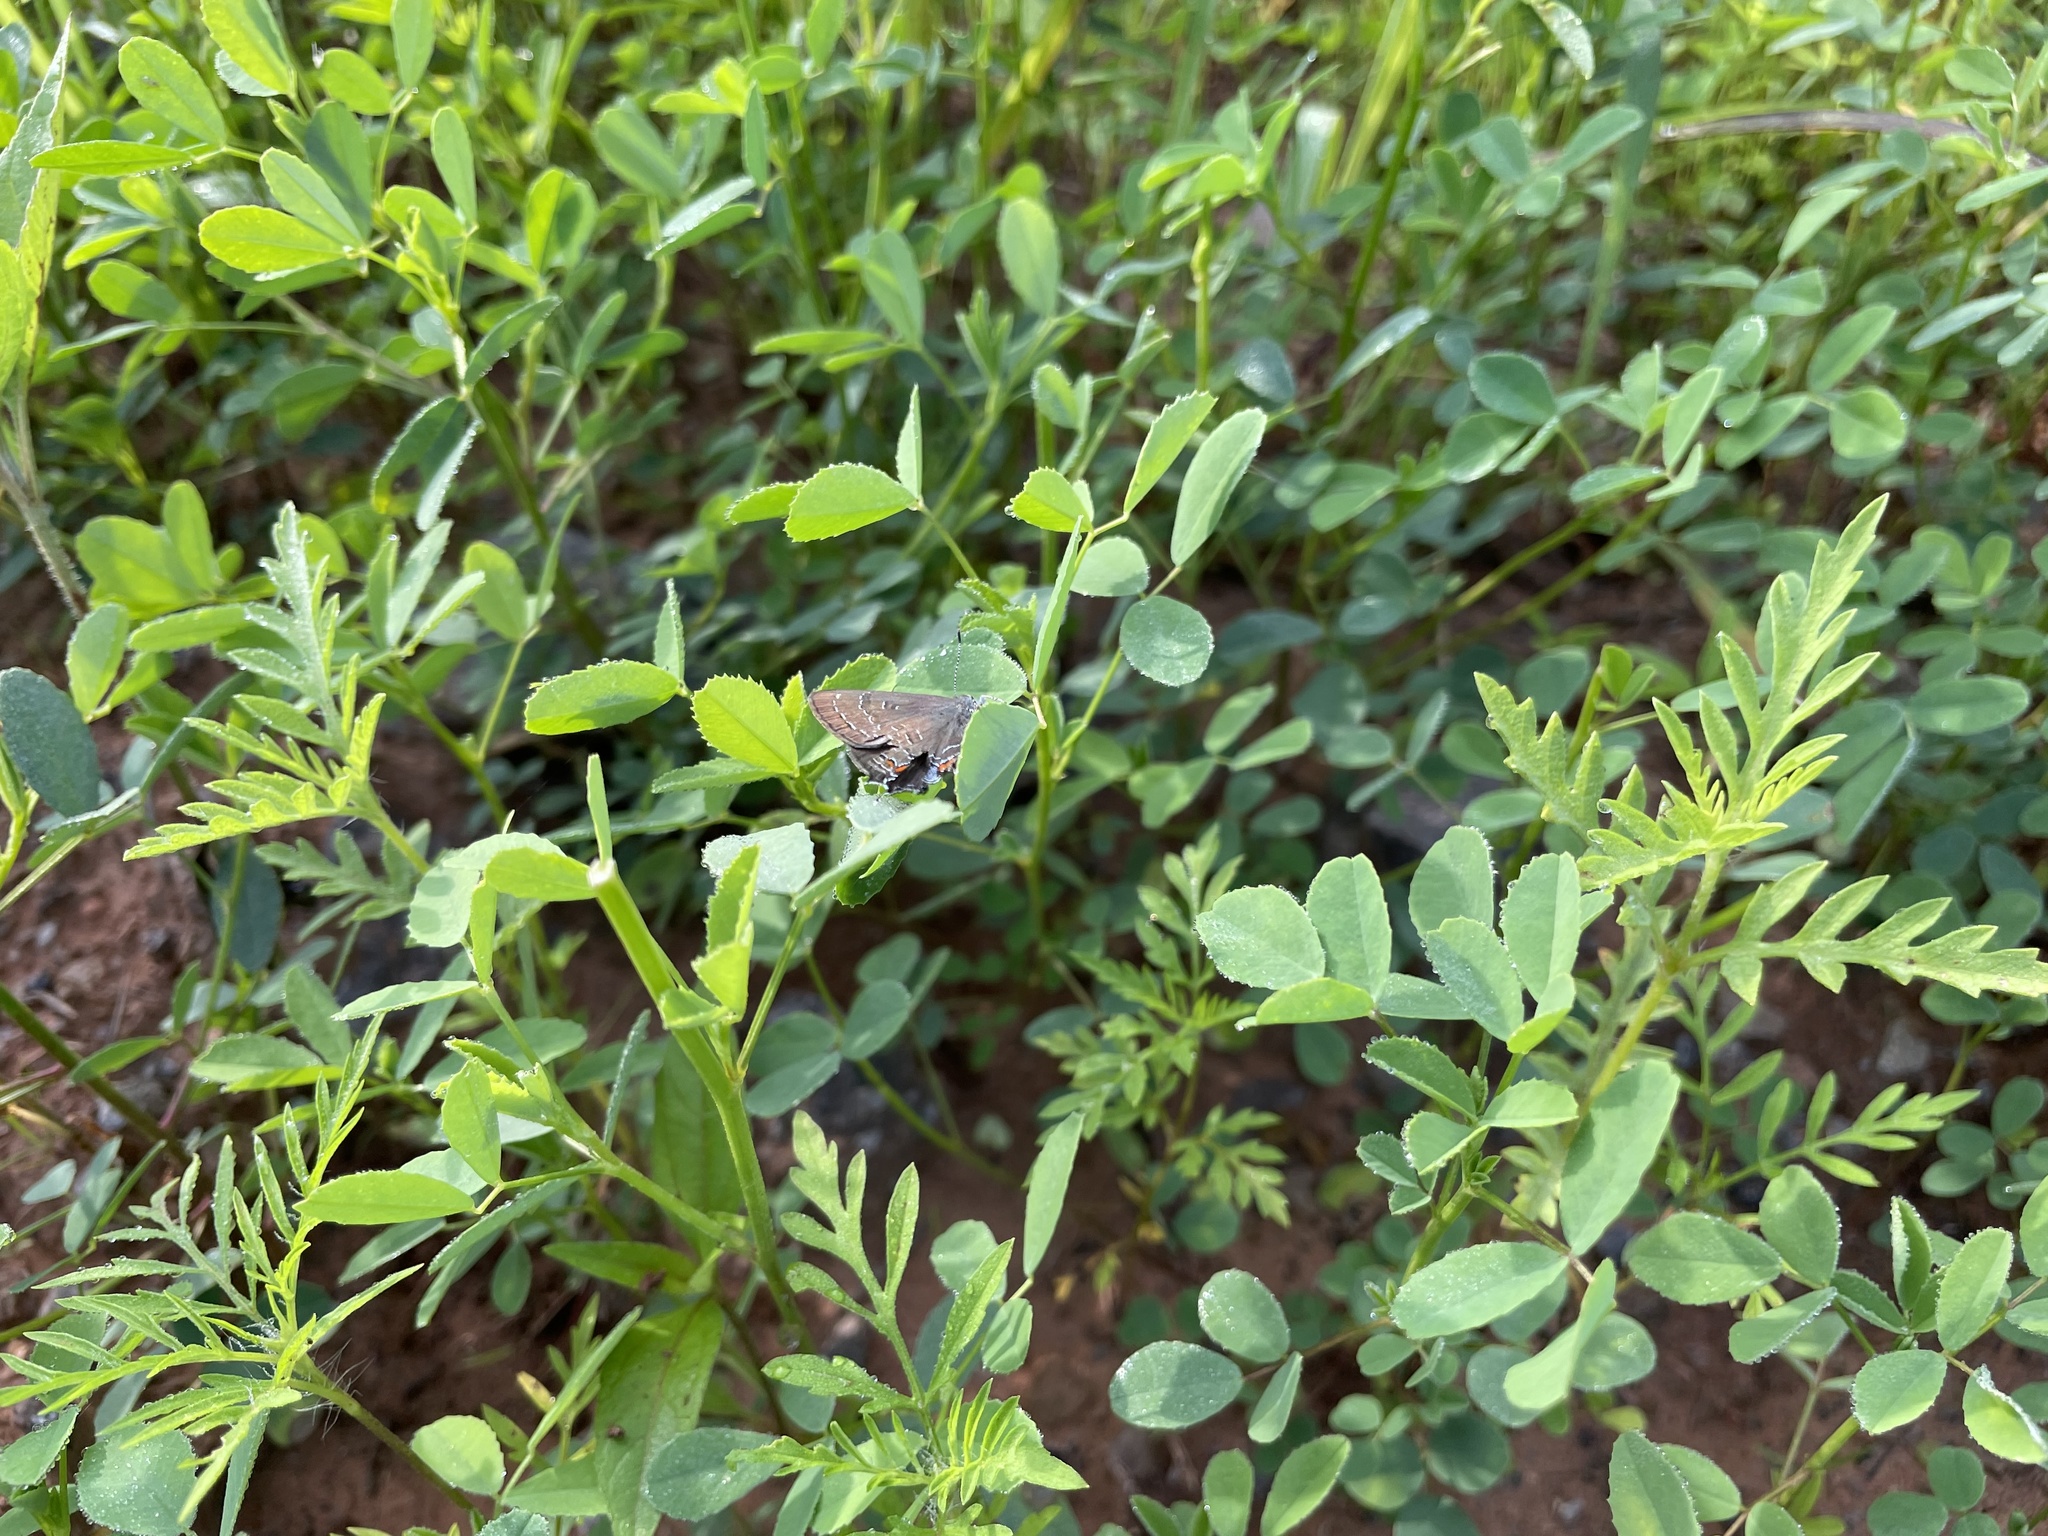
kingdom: Animalia
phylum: Arthropoda
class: Insecta
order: Lepidoptera
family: Lycaenidae
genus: Satyrium
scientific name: Satyrium calanus
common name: Banded hairstreak
